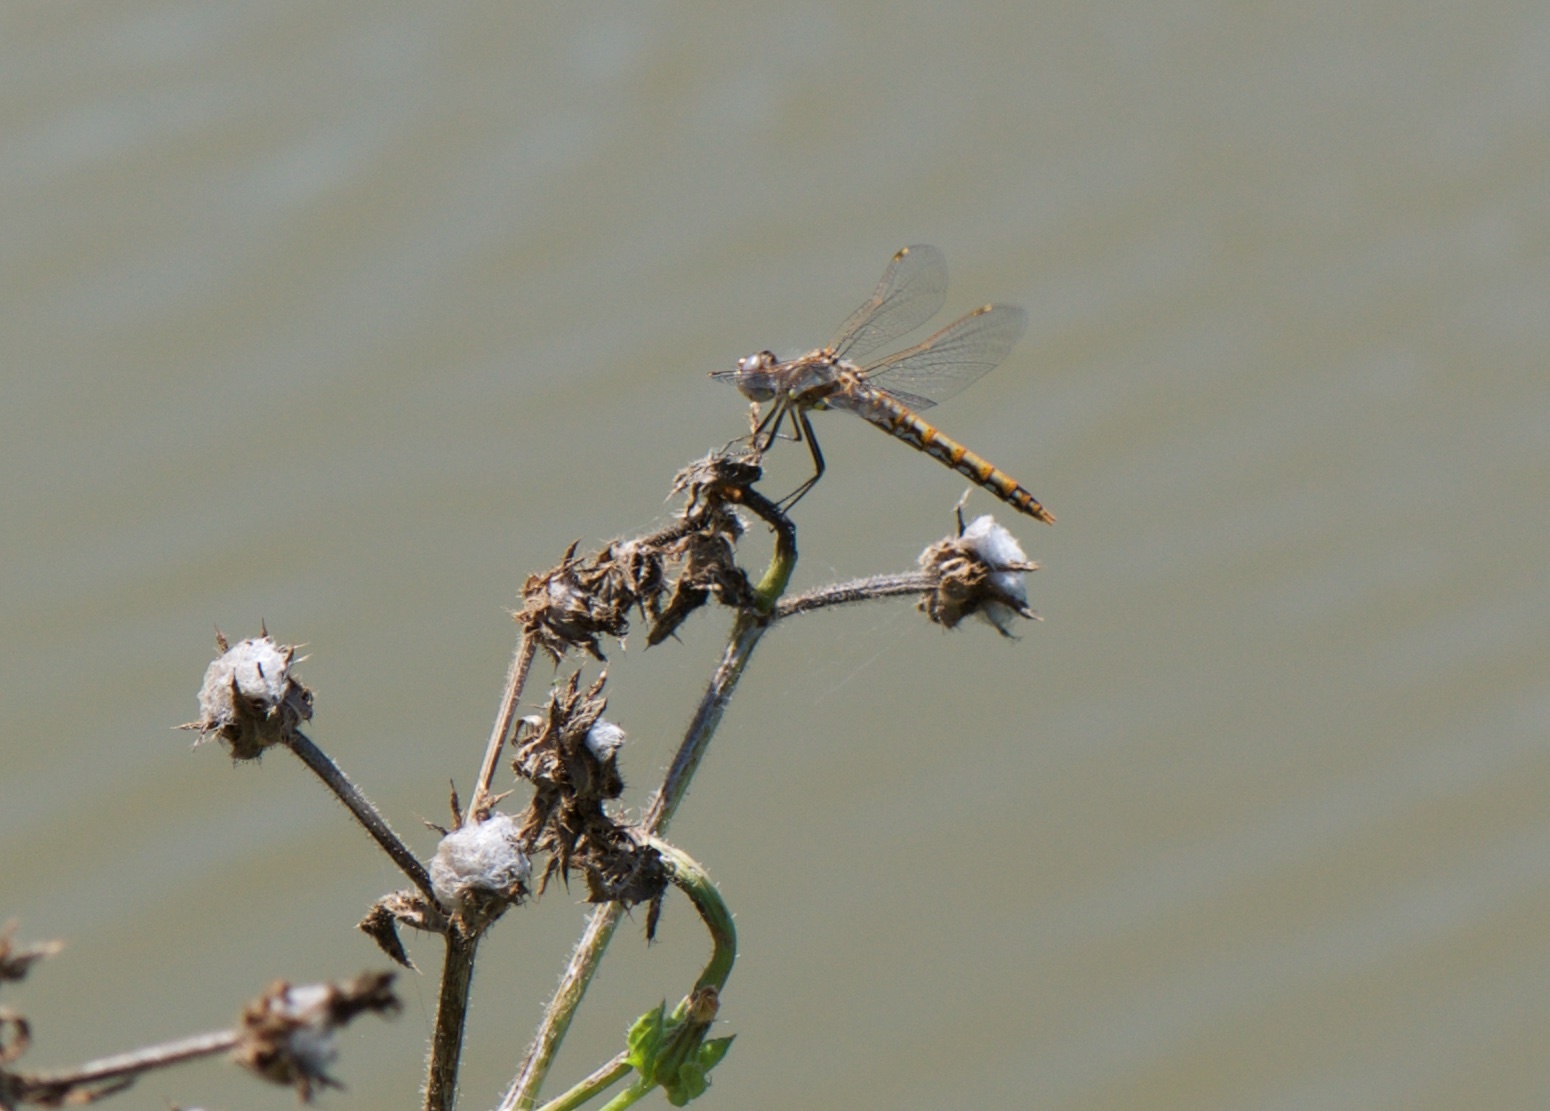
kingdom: Animalia
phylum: Arthropoda
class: Insecta
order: Odonata
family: Libellulidae
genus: Sympetrum
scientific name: Sympetrum corruptum
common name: Variegated meadowhawk
